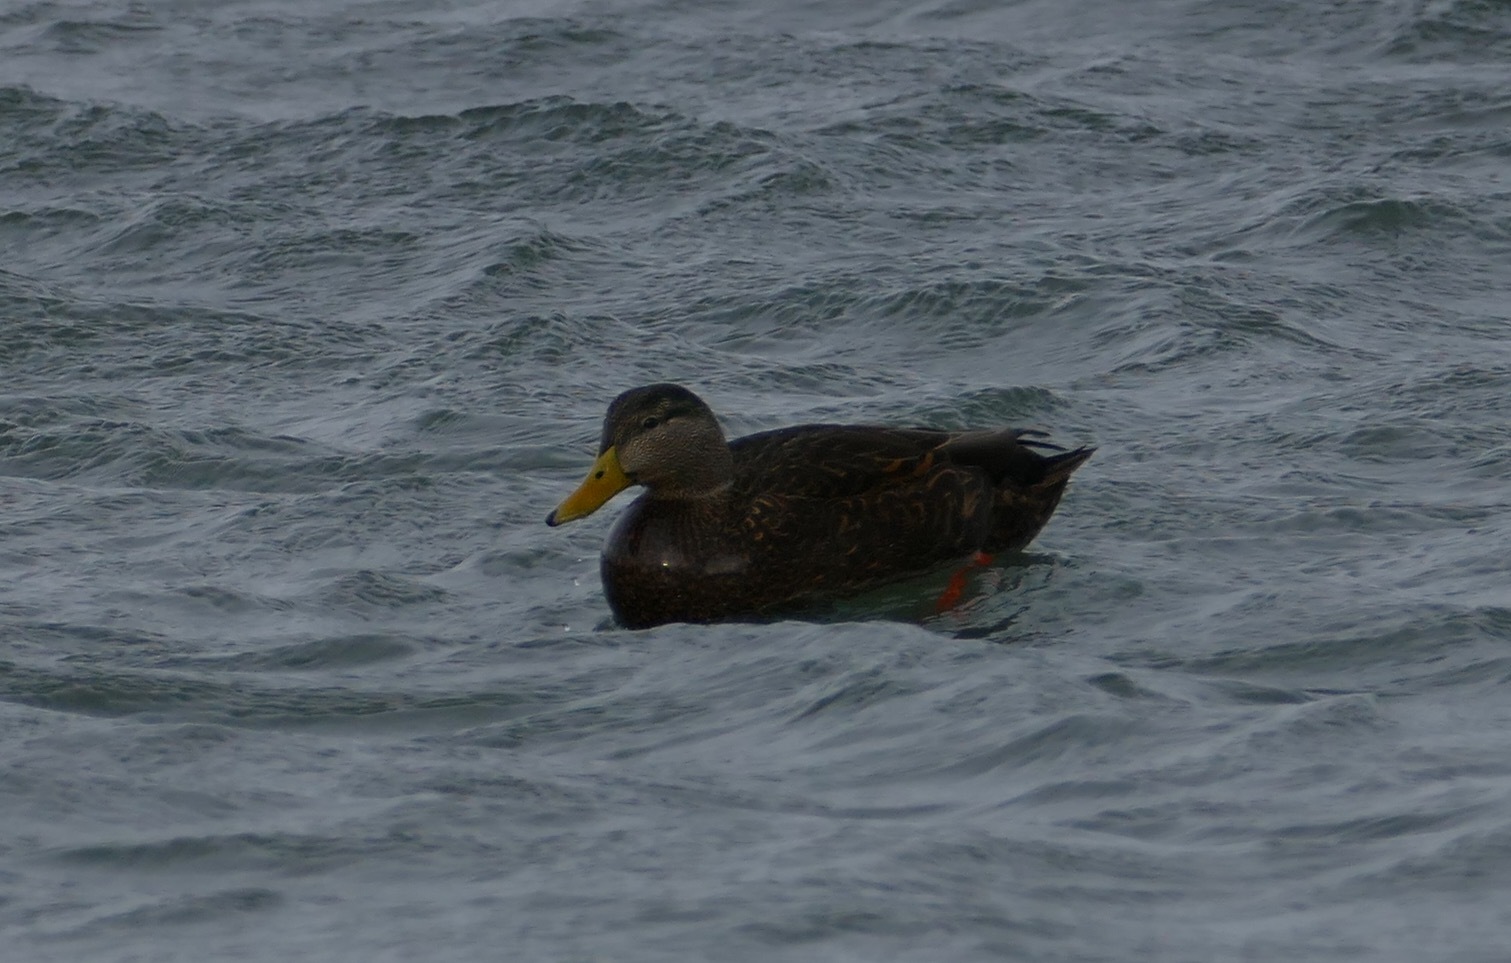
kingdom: Animalia
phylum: Chordata
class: Aves
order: Anseriformes
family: Anatidae
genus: Anas
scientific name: Anas rubripes
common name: American black duck
